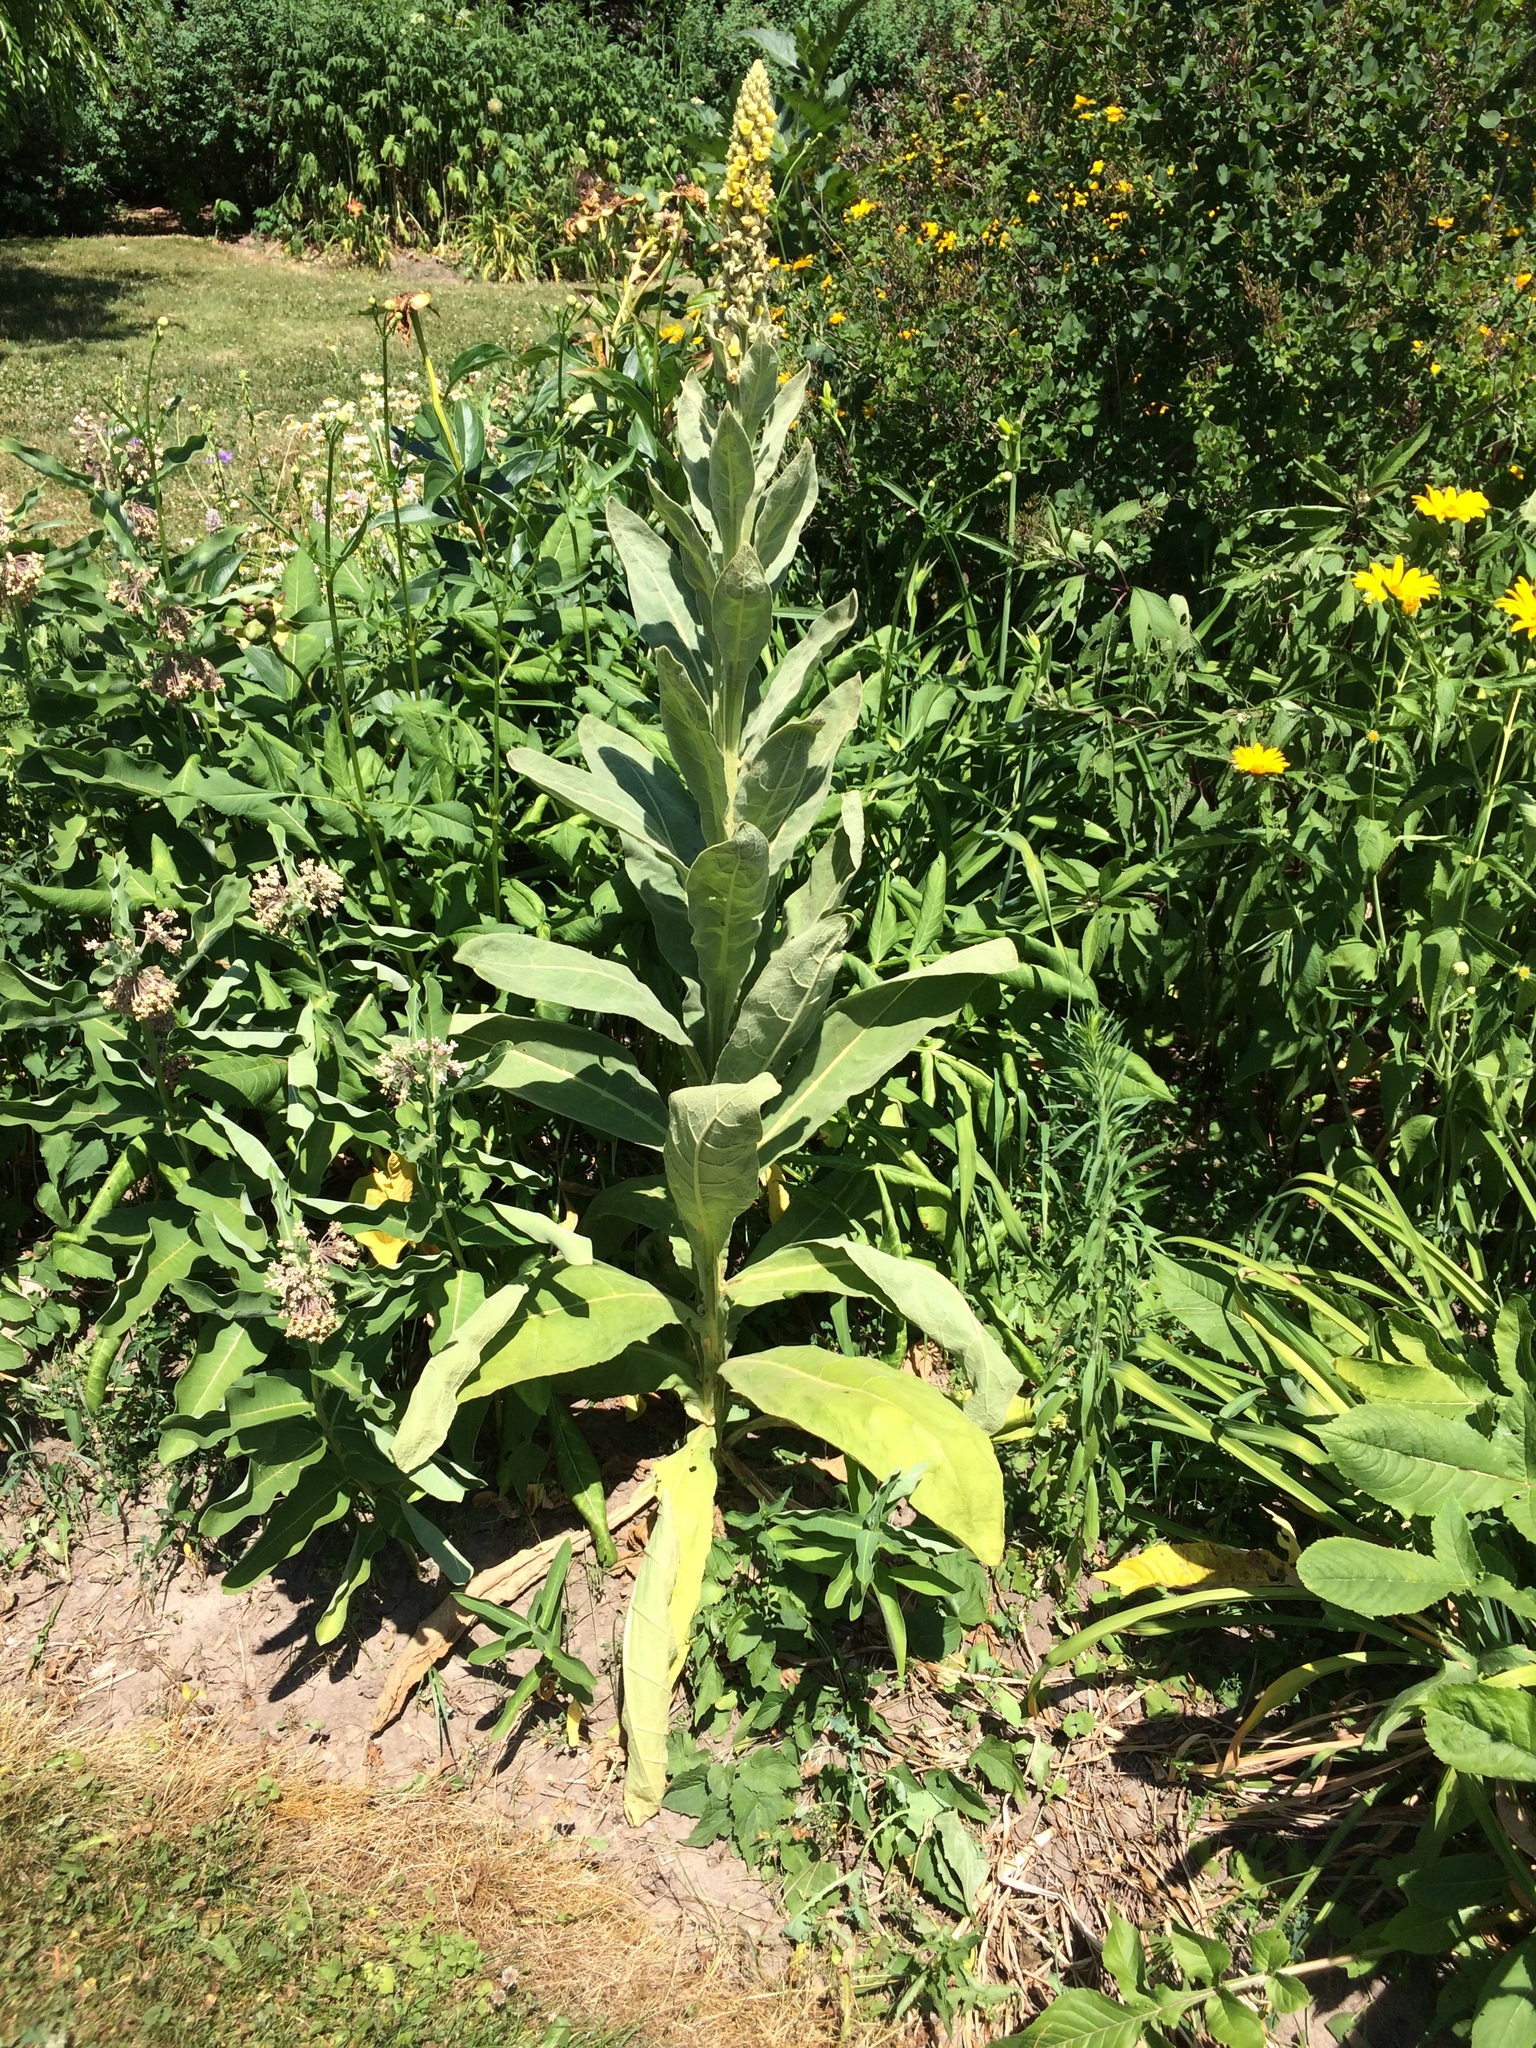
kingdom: Plantae
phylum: Tracheophyta
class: Magnoliopsida
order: Lamiales
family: Scrophulariaceae
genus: Verbascum
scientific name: Verbascum thapsus
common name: Common mullein
